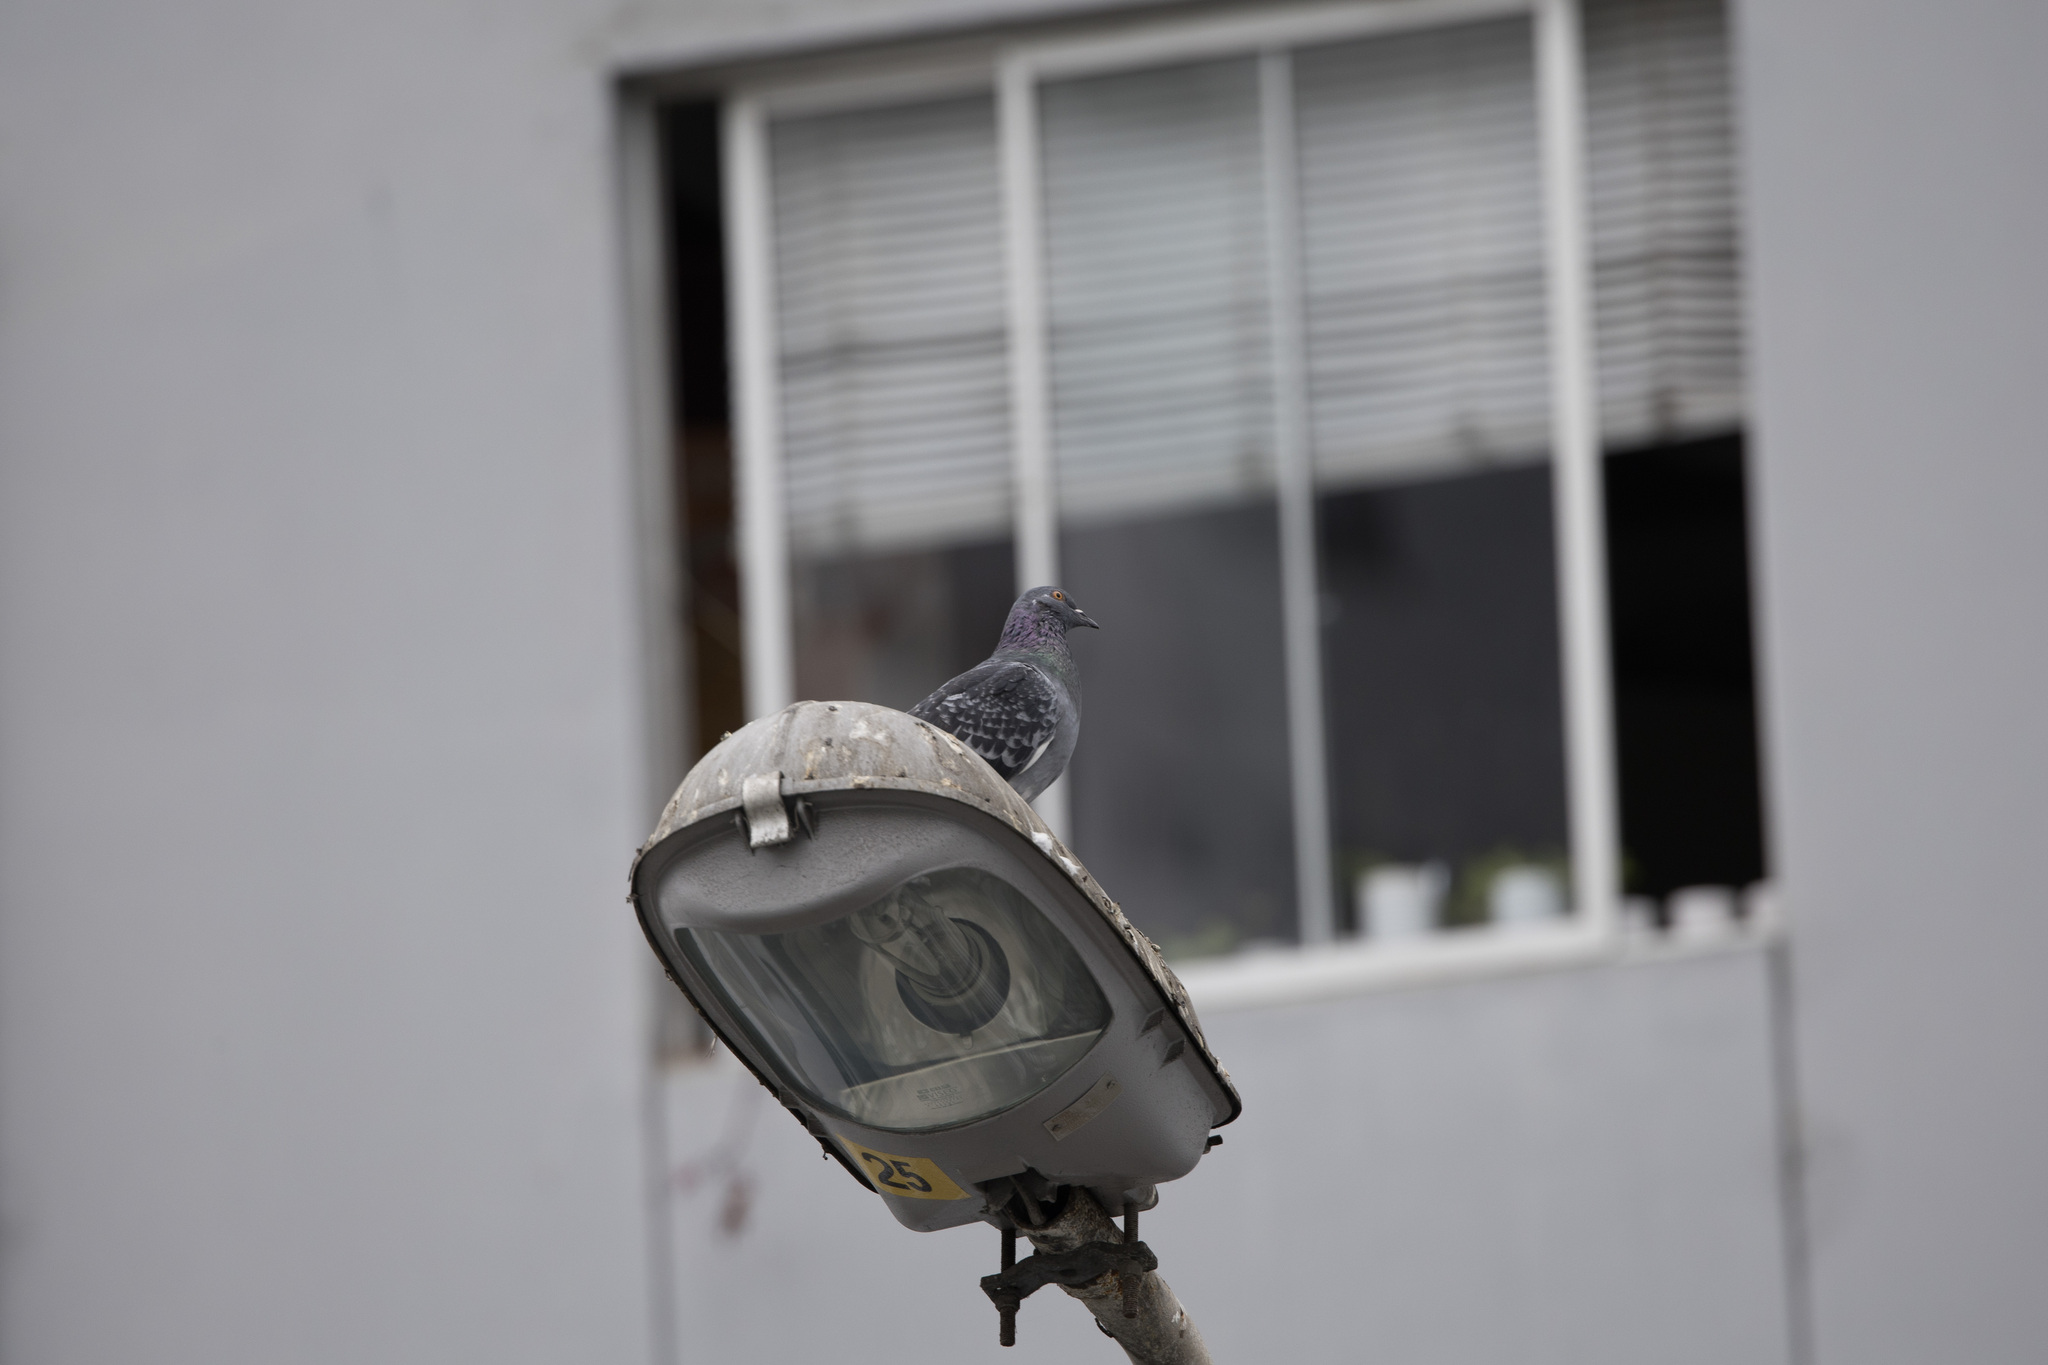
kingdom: Animalia
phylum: Chordata
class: Aves
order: Columbiformes
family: Columbidae
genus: Columba
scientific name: Columba livia
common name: Rock pigeon
